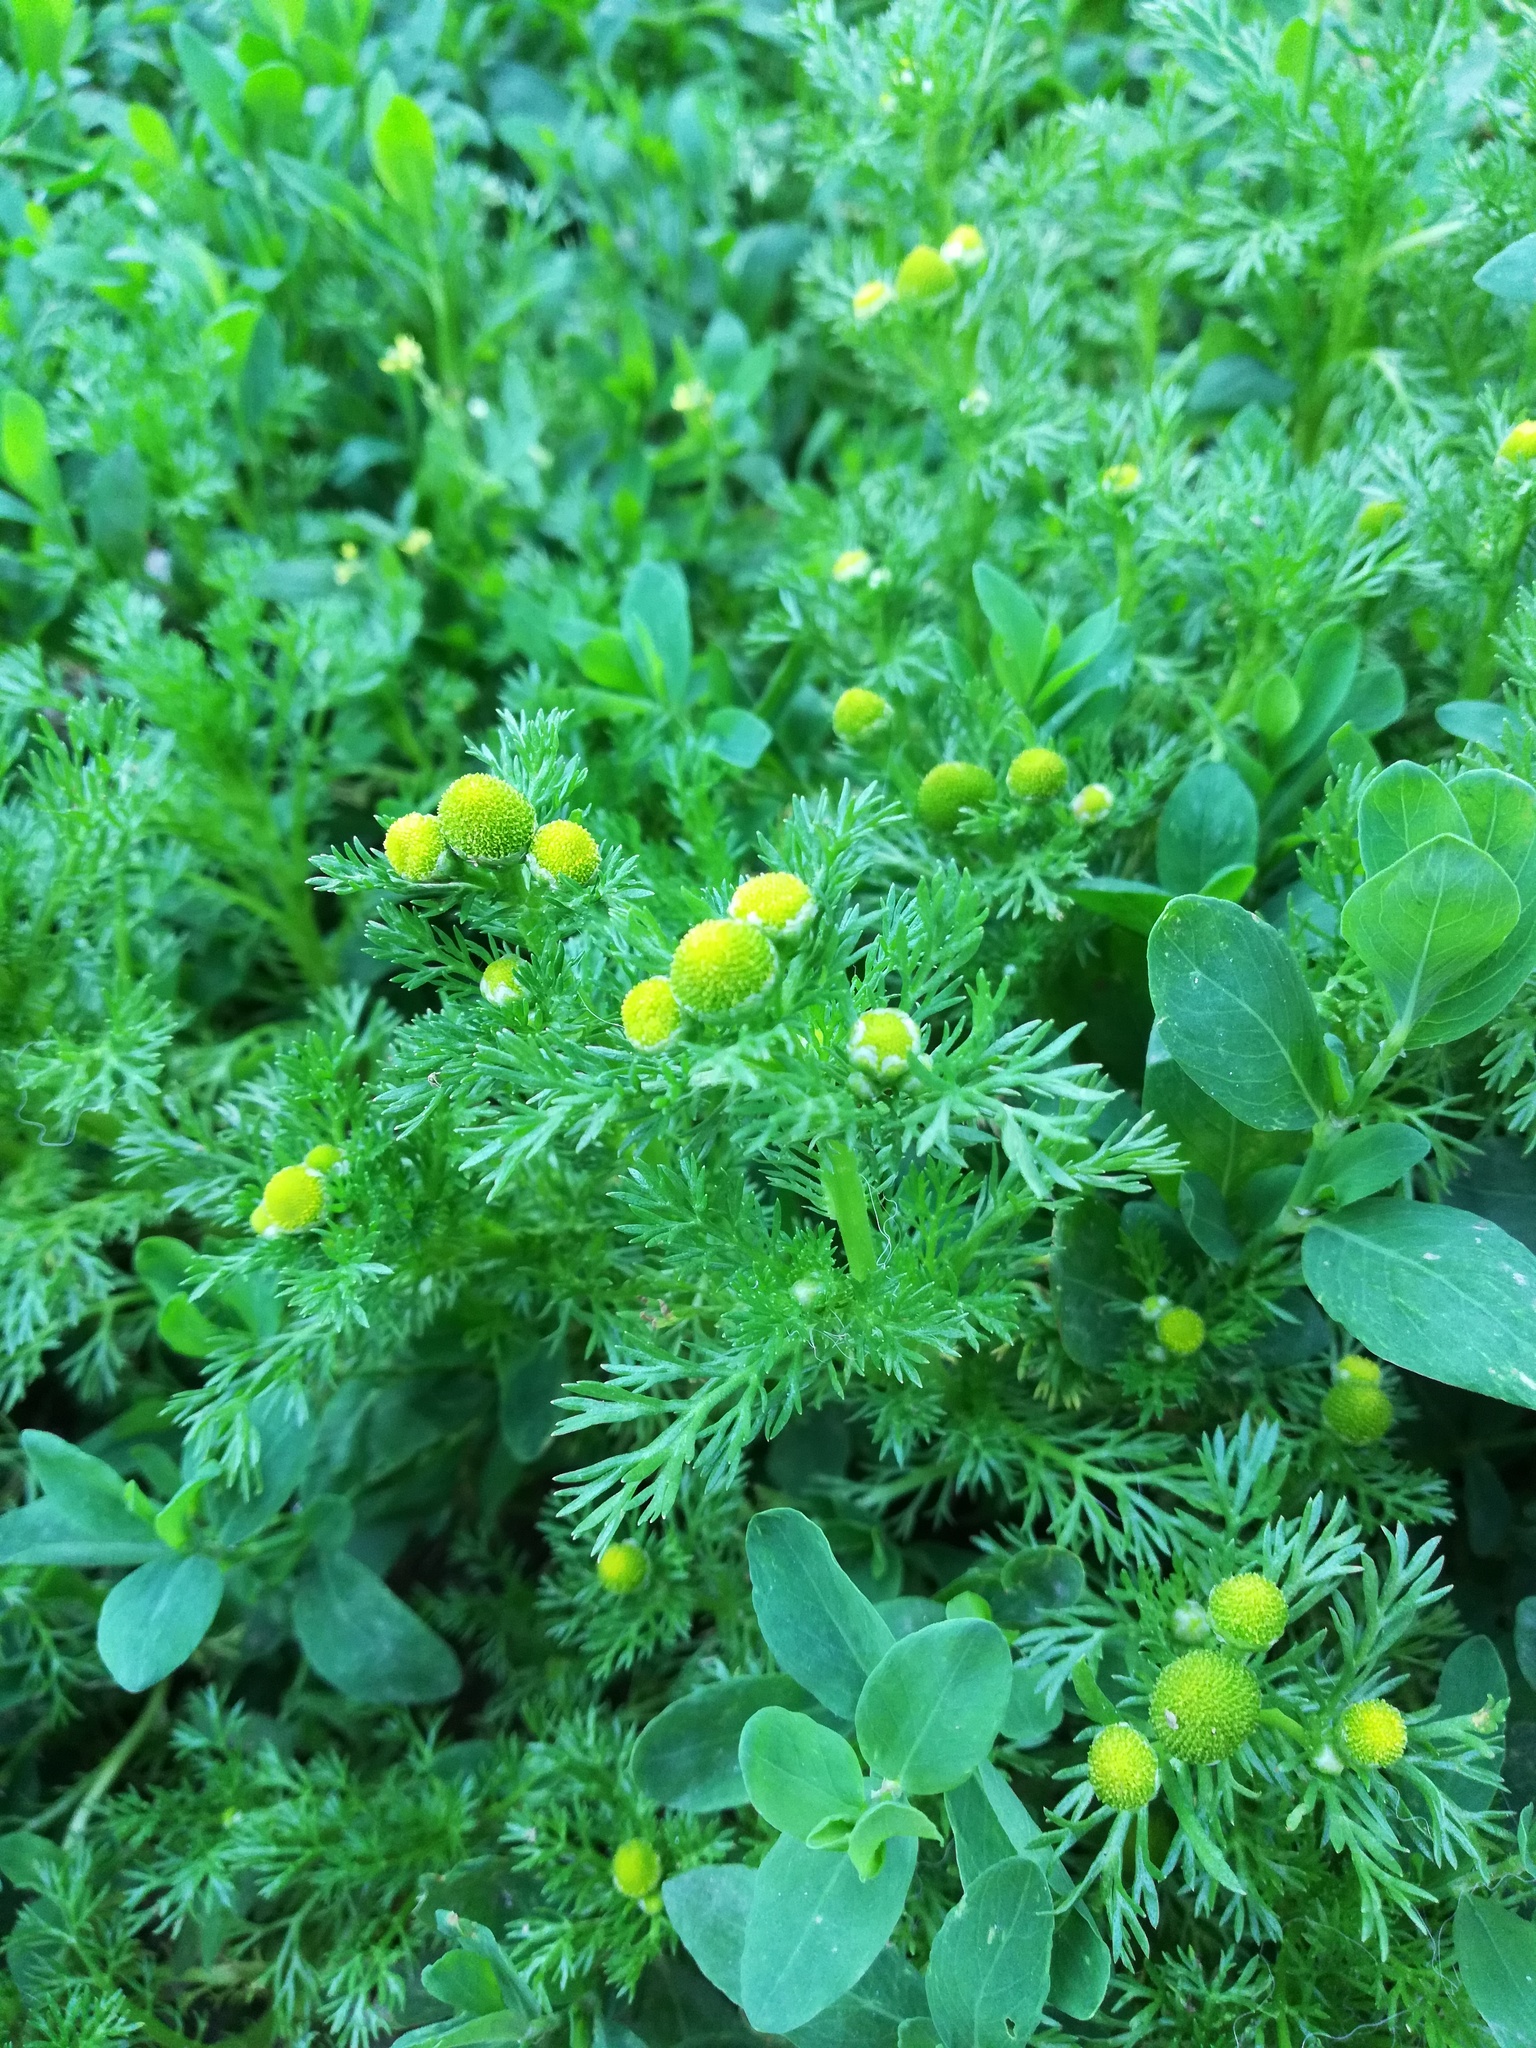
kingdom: Plantae
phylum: Tracheophyta
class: Magnoliopsida
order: Asterales
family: Asteraceae
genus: Matricaria
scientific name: Matricaria discoidea
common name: Disc mayweed
